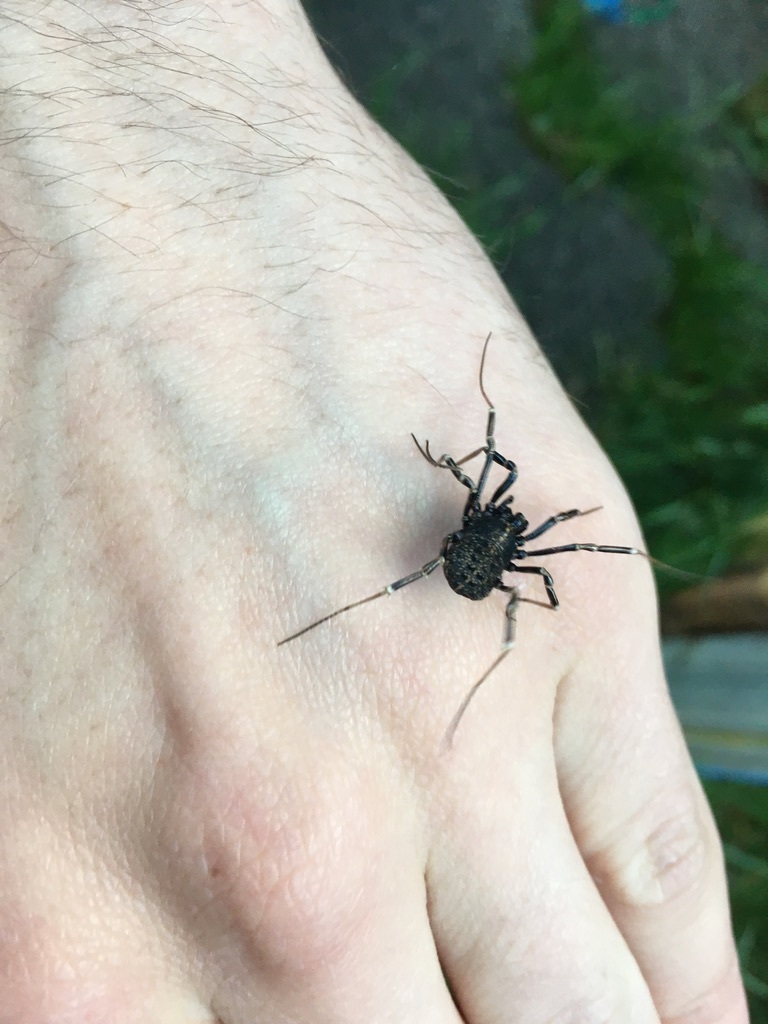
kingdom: Animalia
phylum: Arthropoda
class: Arachnida
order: Opiliones
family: Phalangiidae
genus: Egaenus
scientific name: Egaenus convexus
